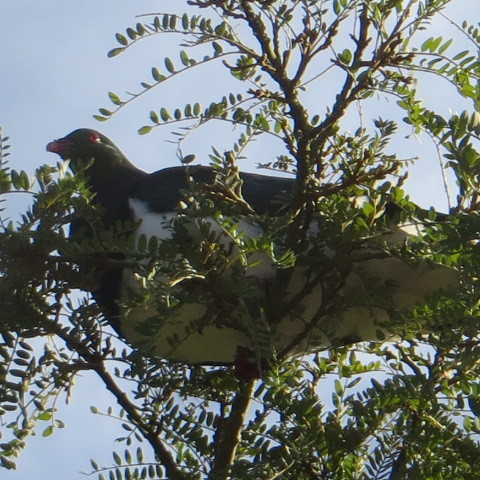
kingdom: Animalia
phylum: Chordata
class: Aves
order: Columbiformes
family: Columbidae
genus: Hemiphaga
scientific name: Hemiphaga novaeseelandiae
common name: New zealand pigeon
